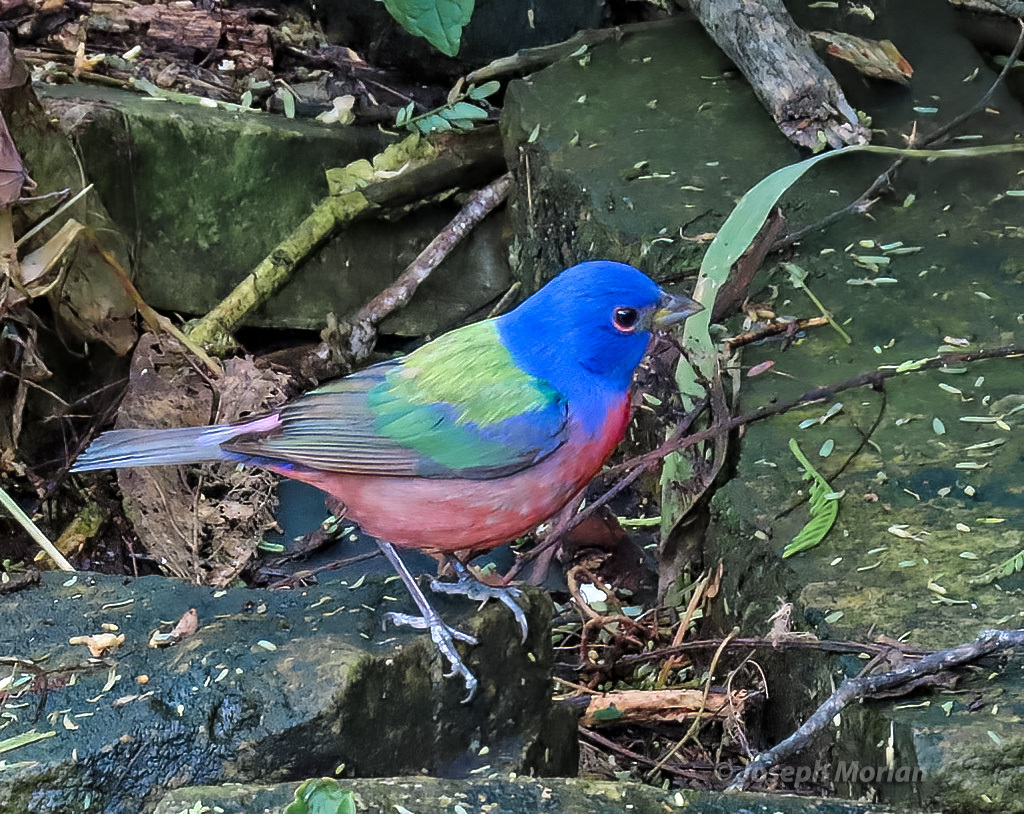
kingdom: Animalia
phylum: Chordata
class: Aves
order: Passeriformes
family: Cardinalidae
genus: Passerina
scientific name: Passerina ciris
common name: Painted bunting
